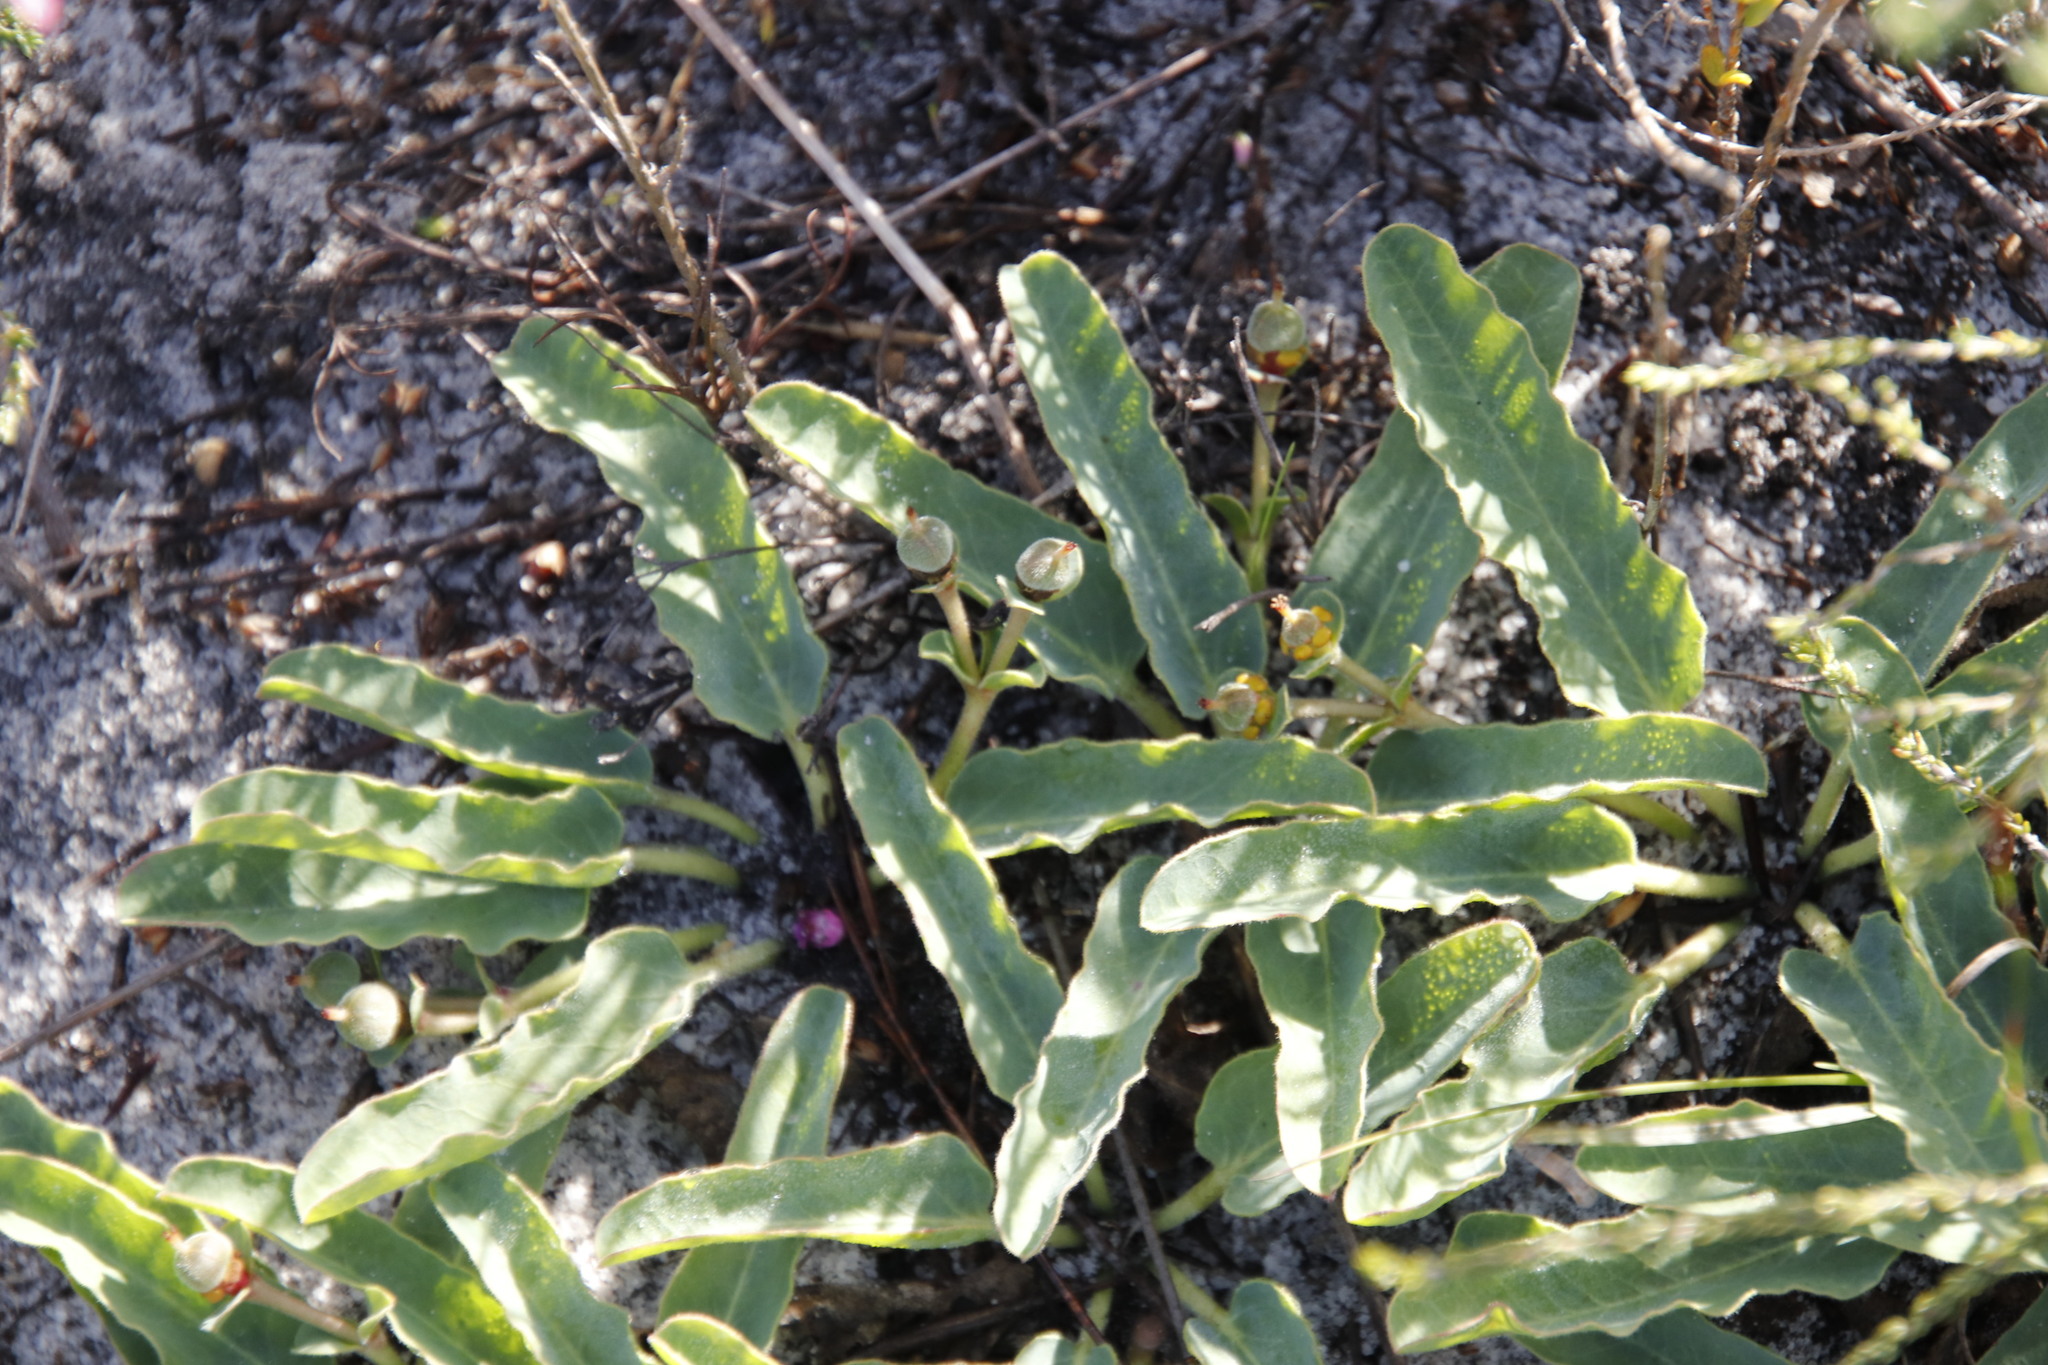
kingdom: Plantae
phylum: Tracheophyta
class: Magnoliopsida
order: Malpighiales
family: Euphorbiaceae
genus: Euphorbia
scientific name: Euphorbia tuberosa
